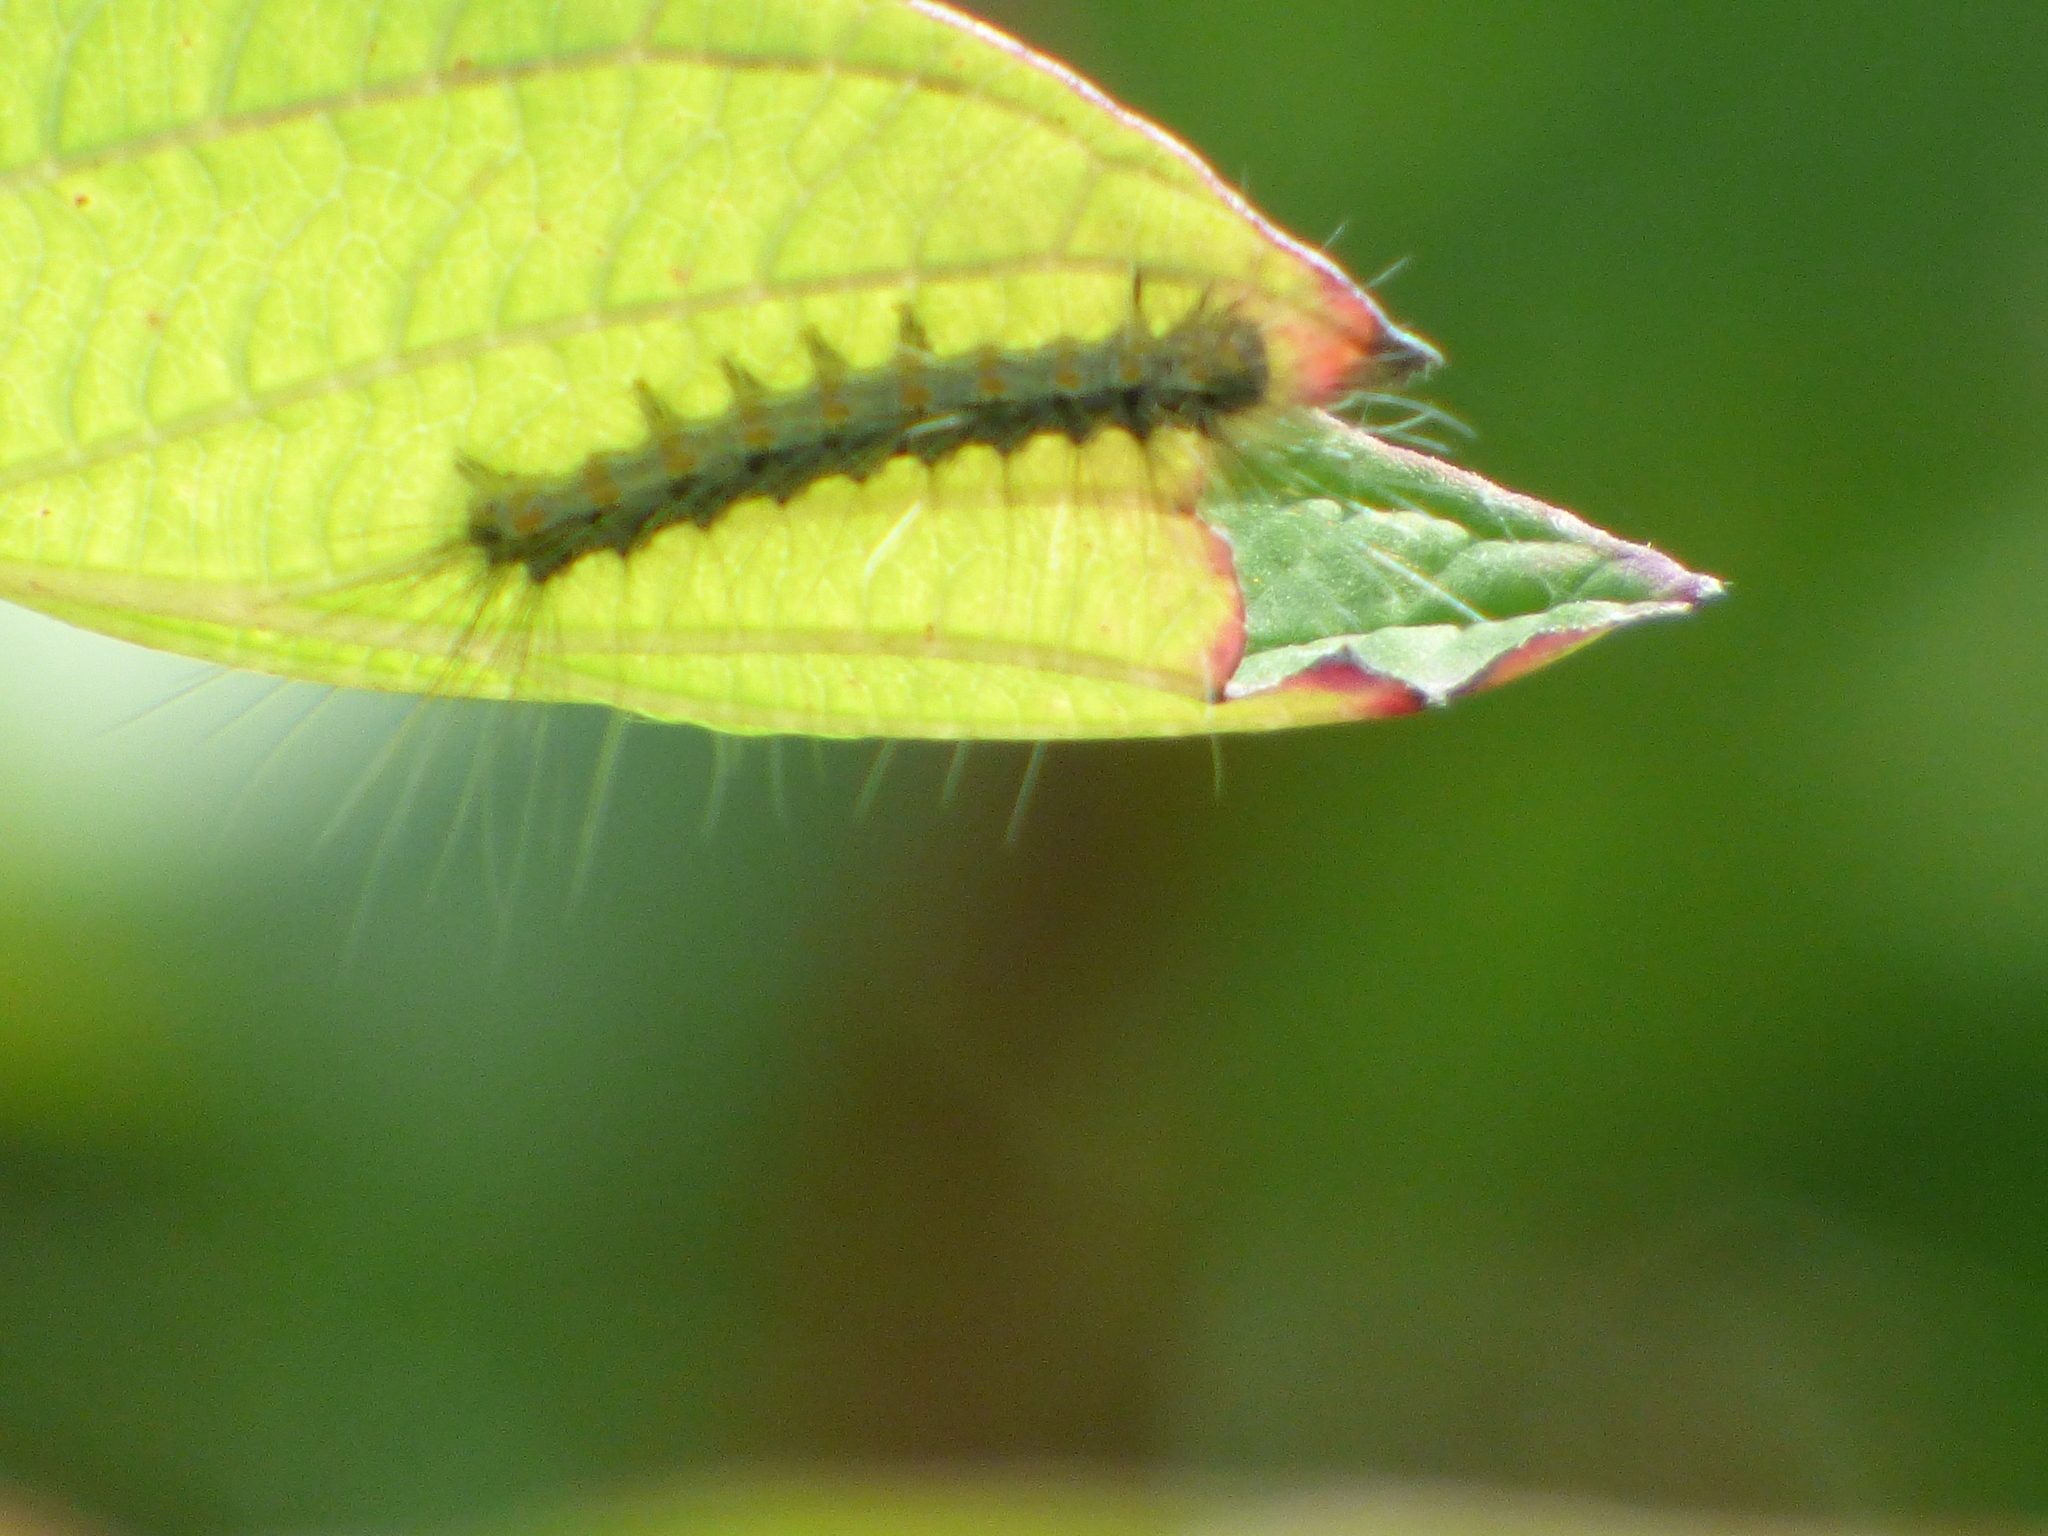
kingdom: Animalia
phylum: Arthropoda
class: Insecta
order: Lepidoptera
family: Erebidae
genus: Hyphantria
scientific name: Hyphantria cunea
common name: American white moth
